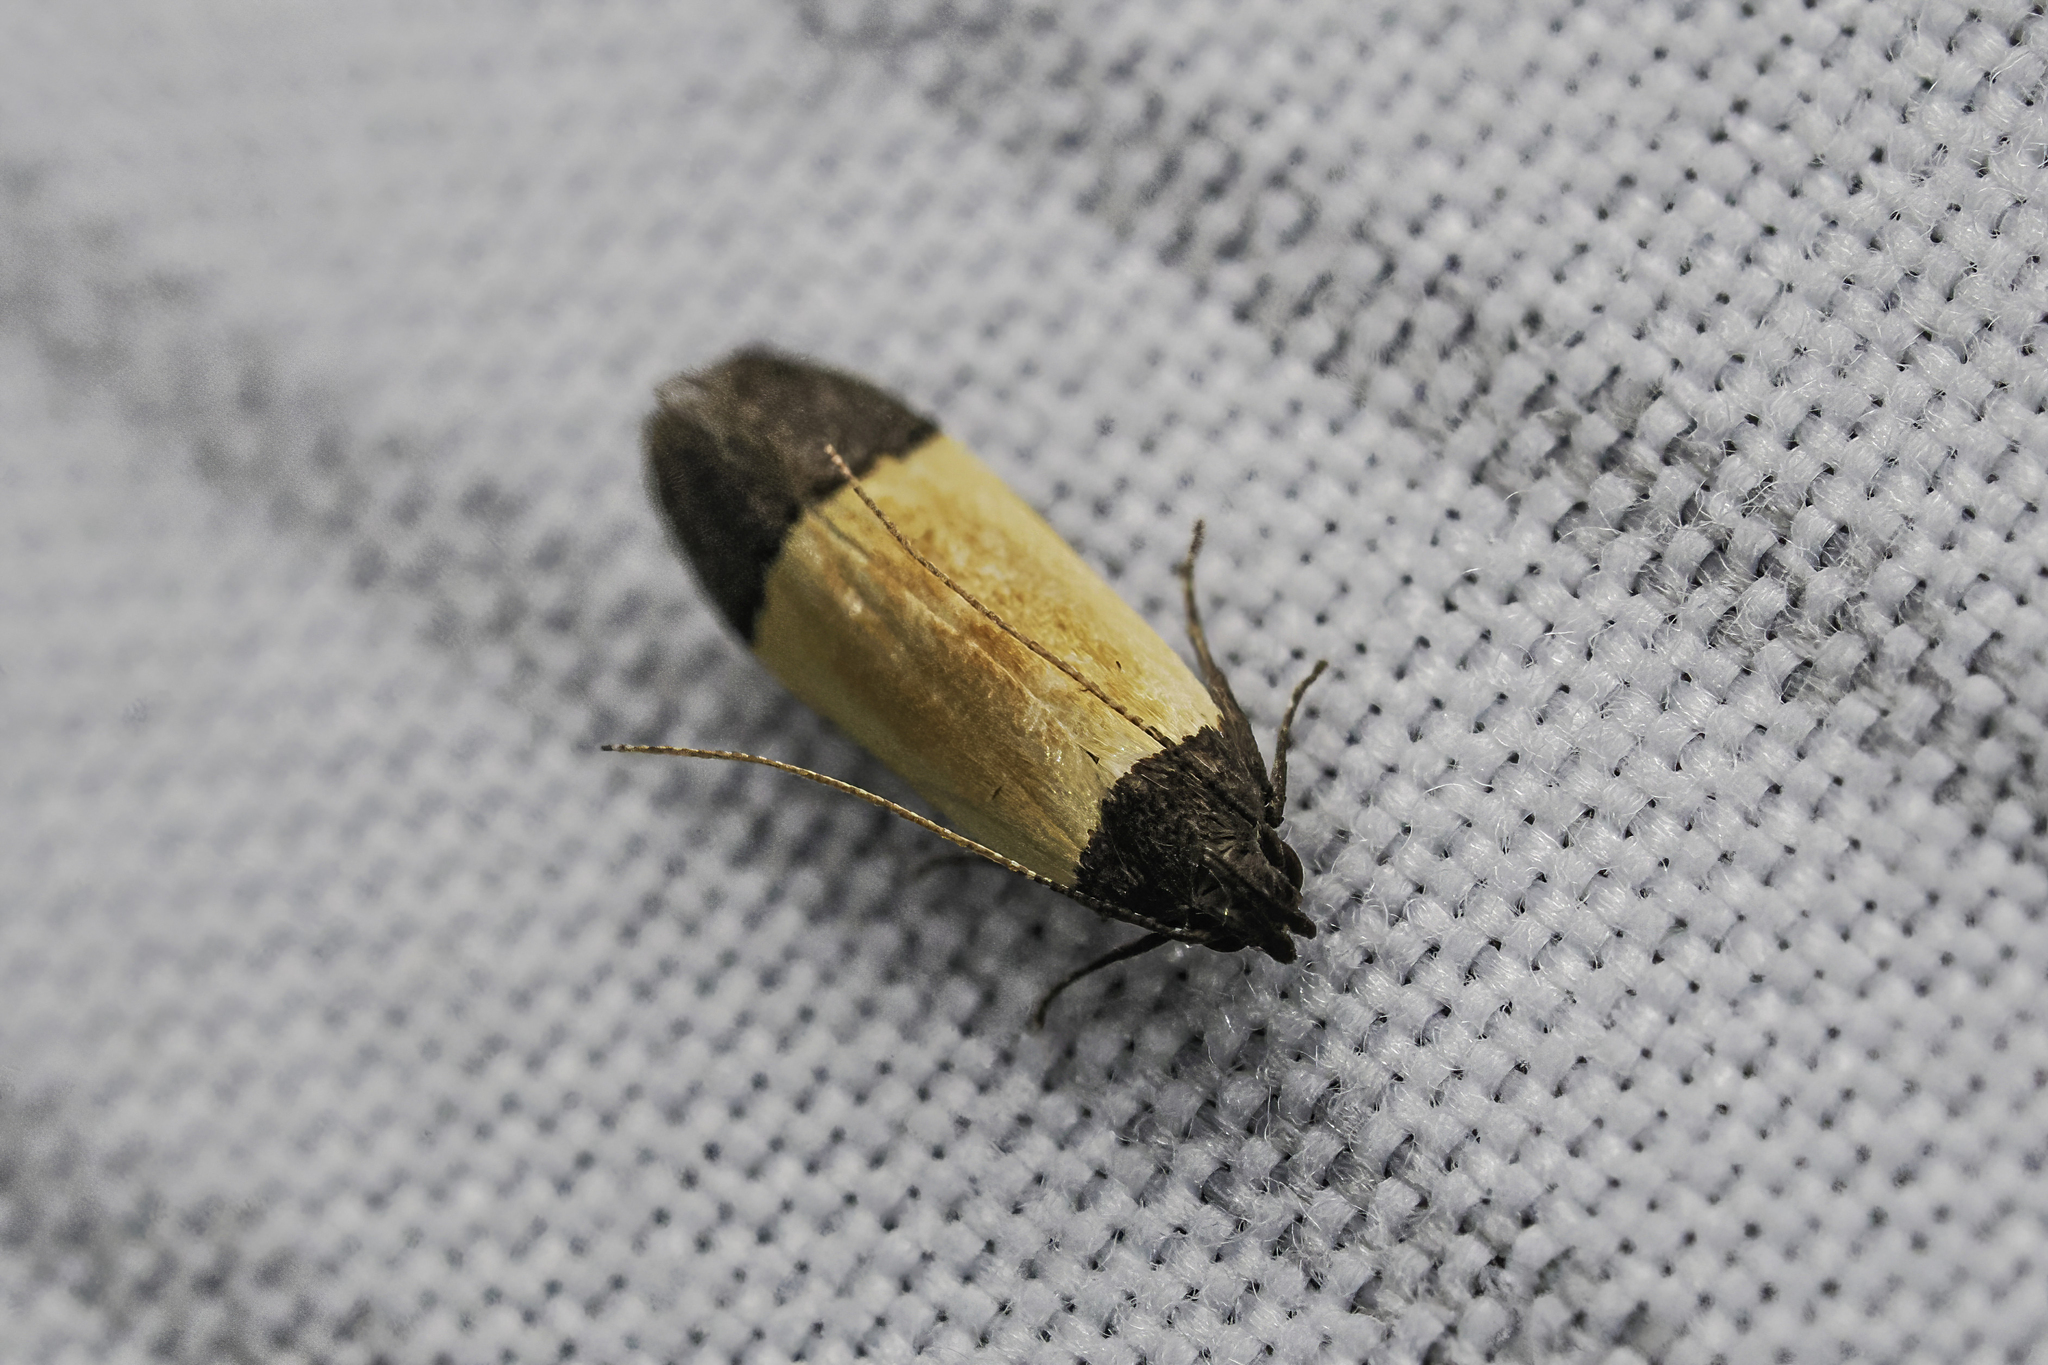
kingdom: Animalia
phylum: Arthropoda
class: Insecta
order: Lepidoptera
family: Gelechiidae
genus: Anacampsis
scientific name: Anacampsis coverdalella
